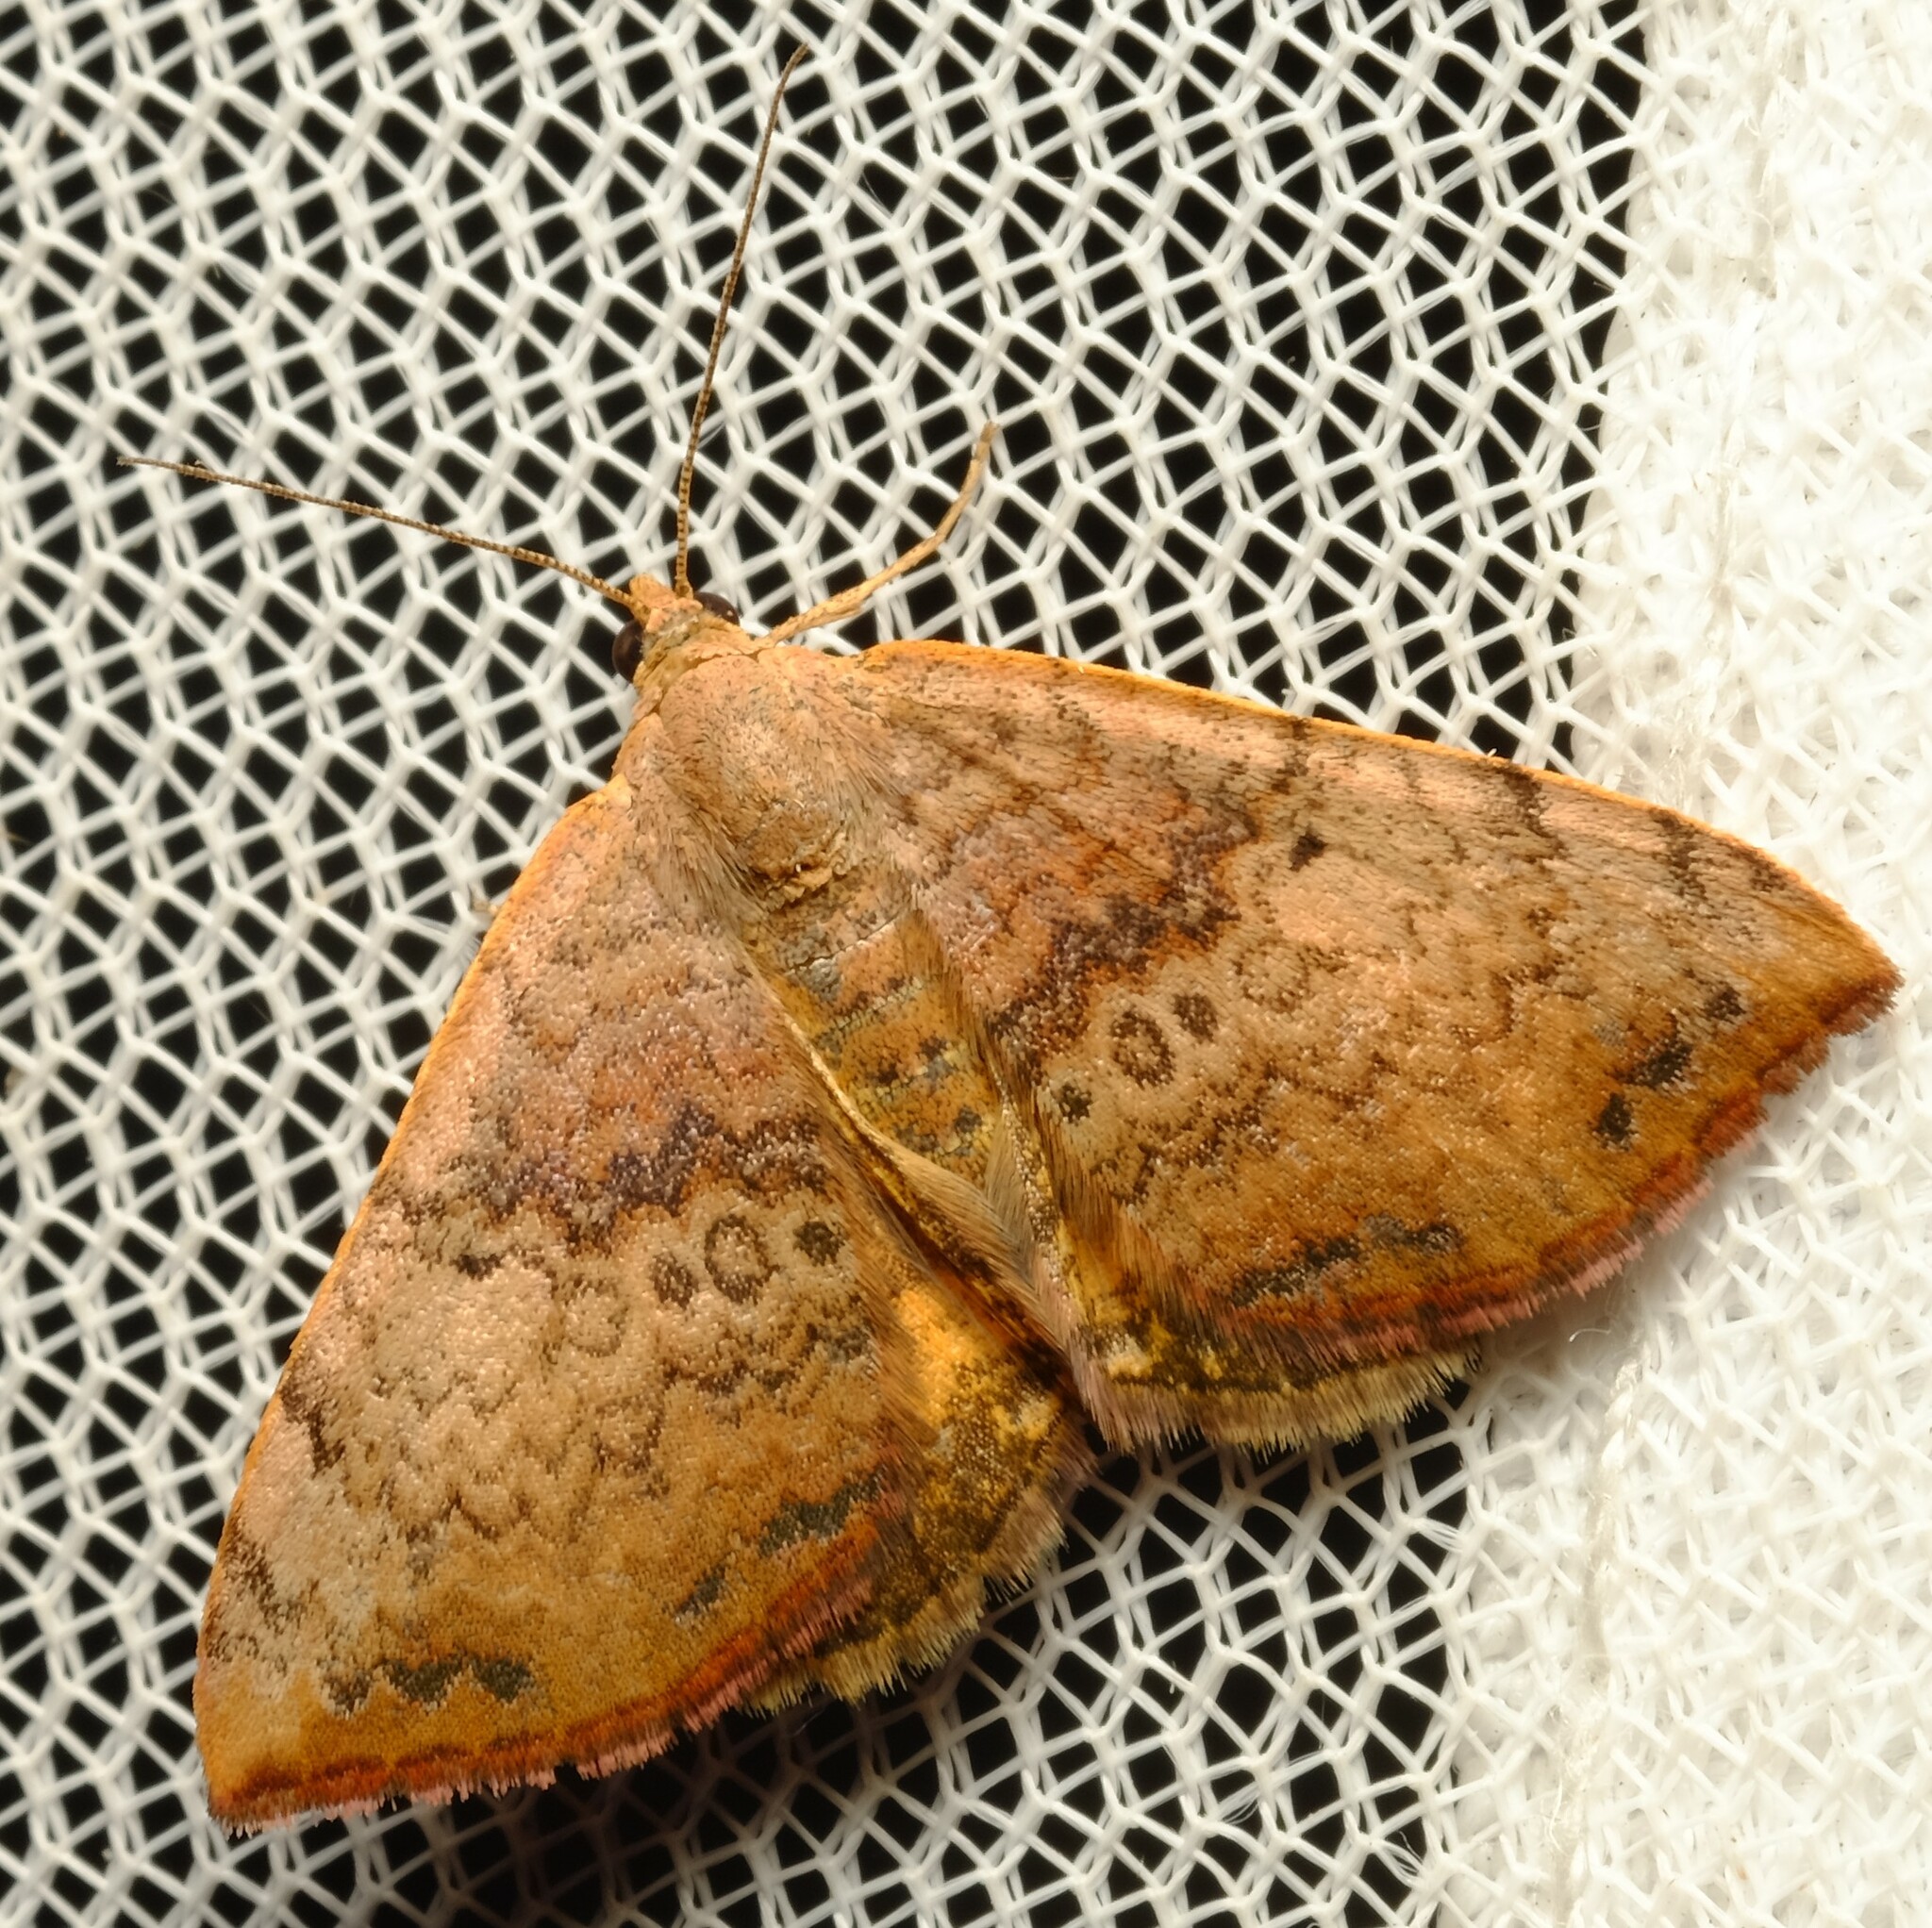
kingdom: Animalia
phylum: Arthropoda
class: Insecta
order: Lepidoptera
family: Geometridae
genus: Chrysolarentia
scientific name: Chrysolarentia mecynata
